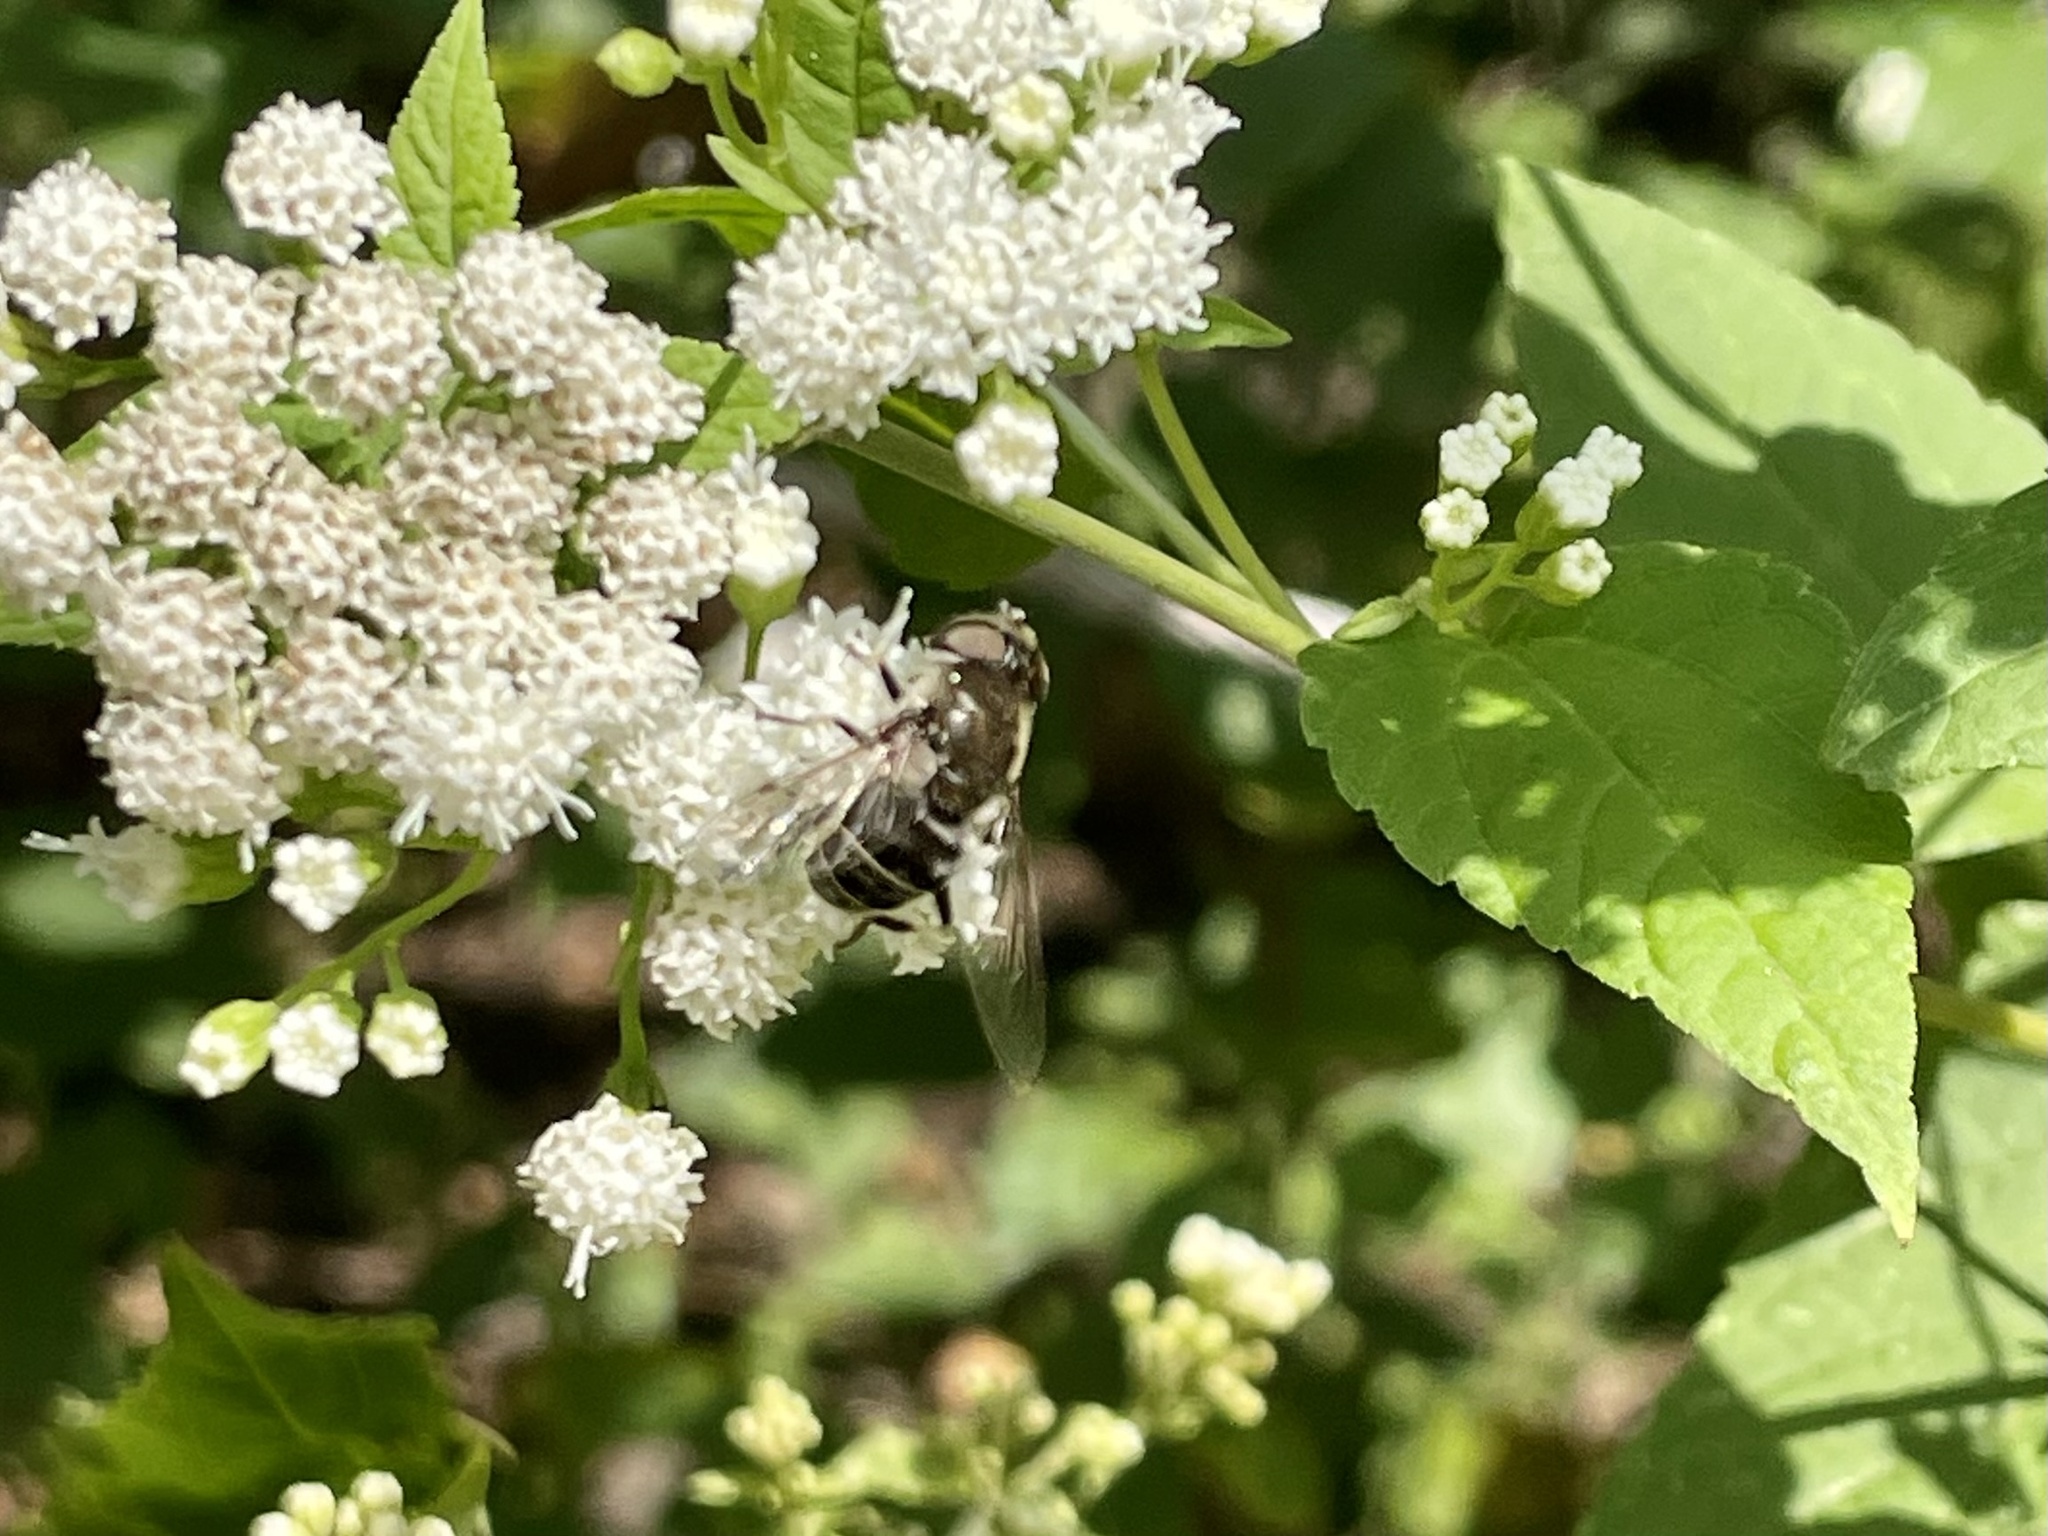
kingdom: Animalia
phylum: Arthropoda
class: Insecta
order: Diptera
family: Syrphidae
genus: Eristalis
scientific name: Eristalis dimidiata
